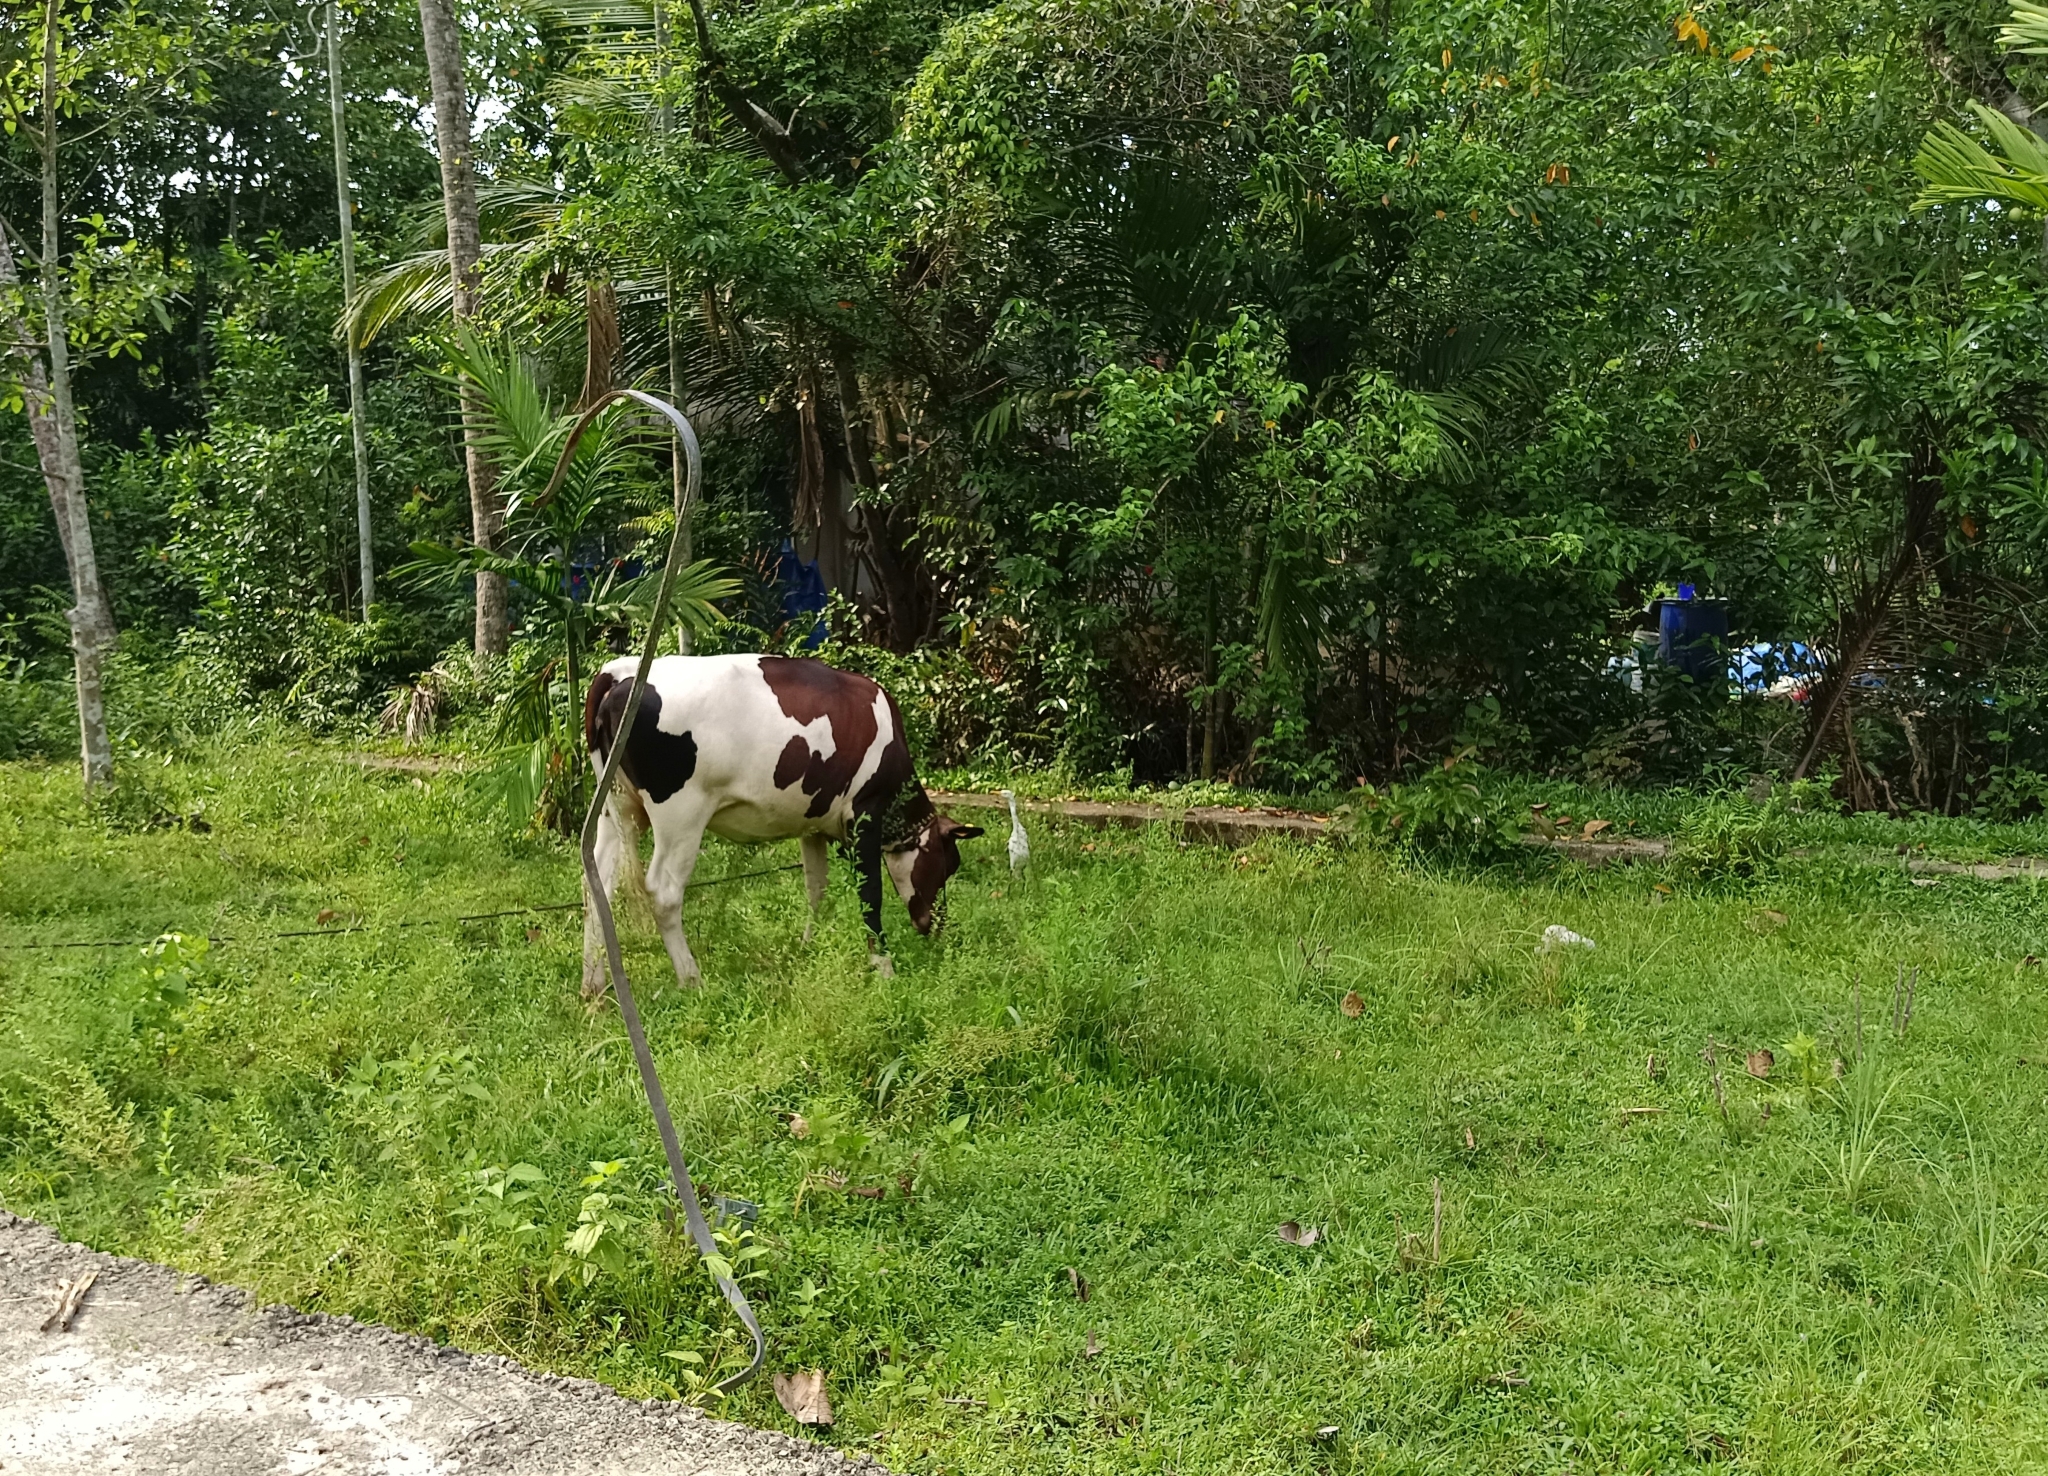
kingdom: Animalia
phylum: Chordata
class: Aves
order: Pelecaniformes
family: Ardeidae
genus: Bubulcus
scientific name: Bubulcus coromandus
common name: Eastern cattle egret
